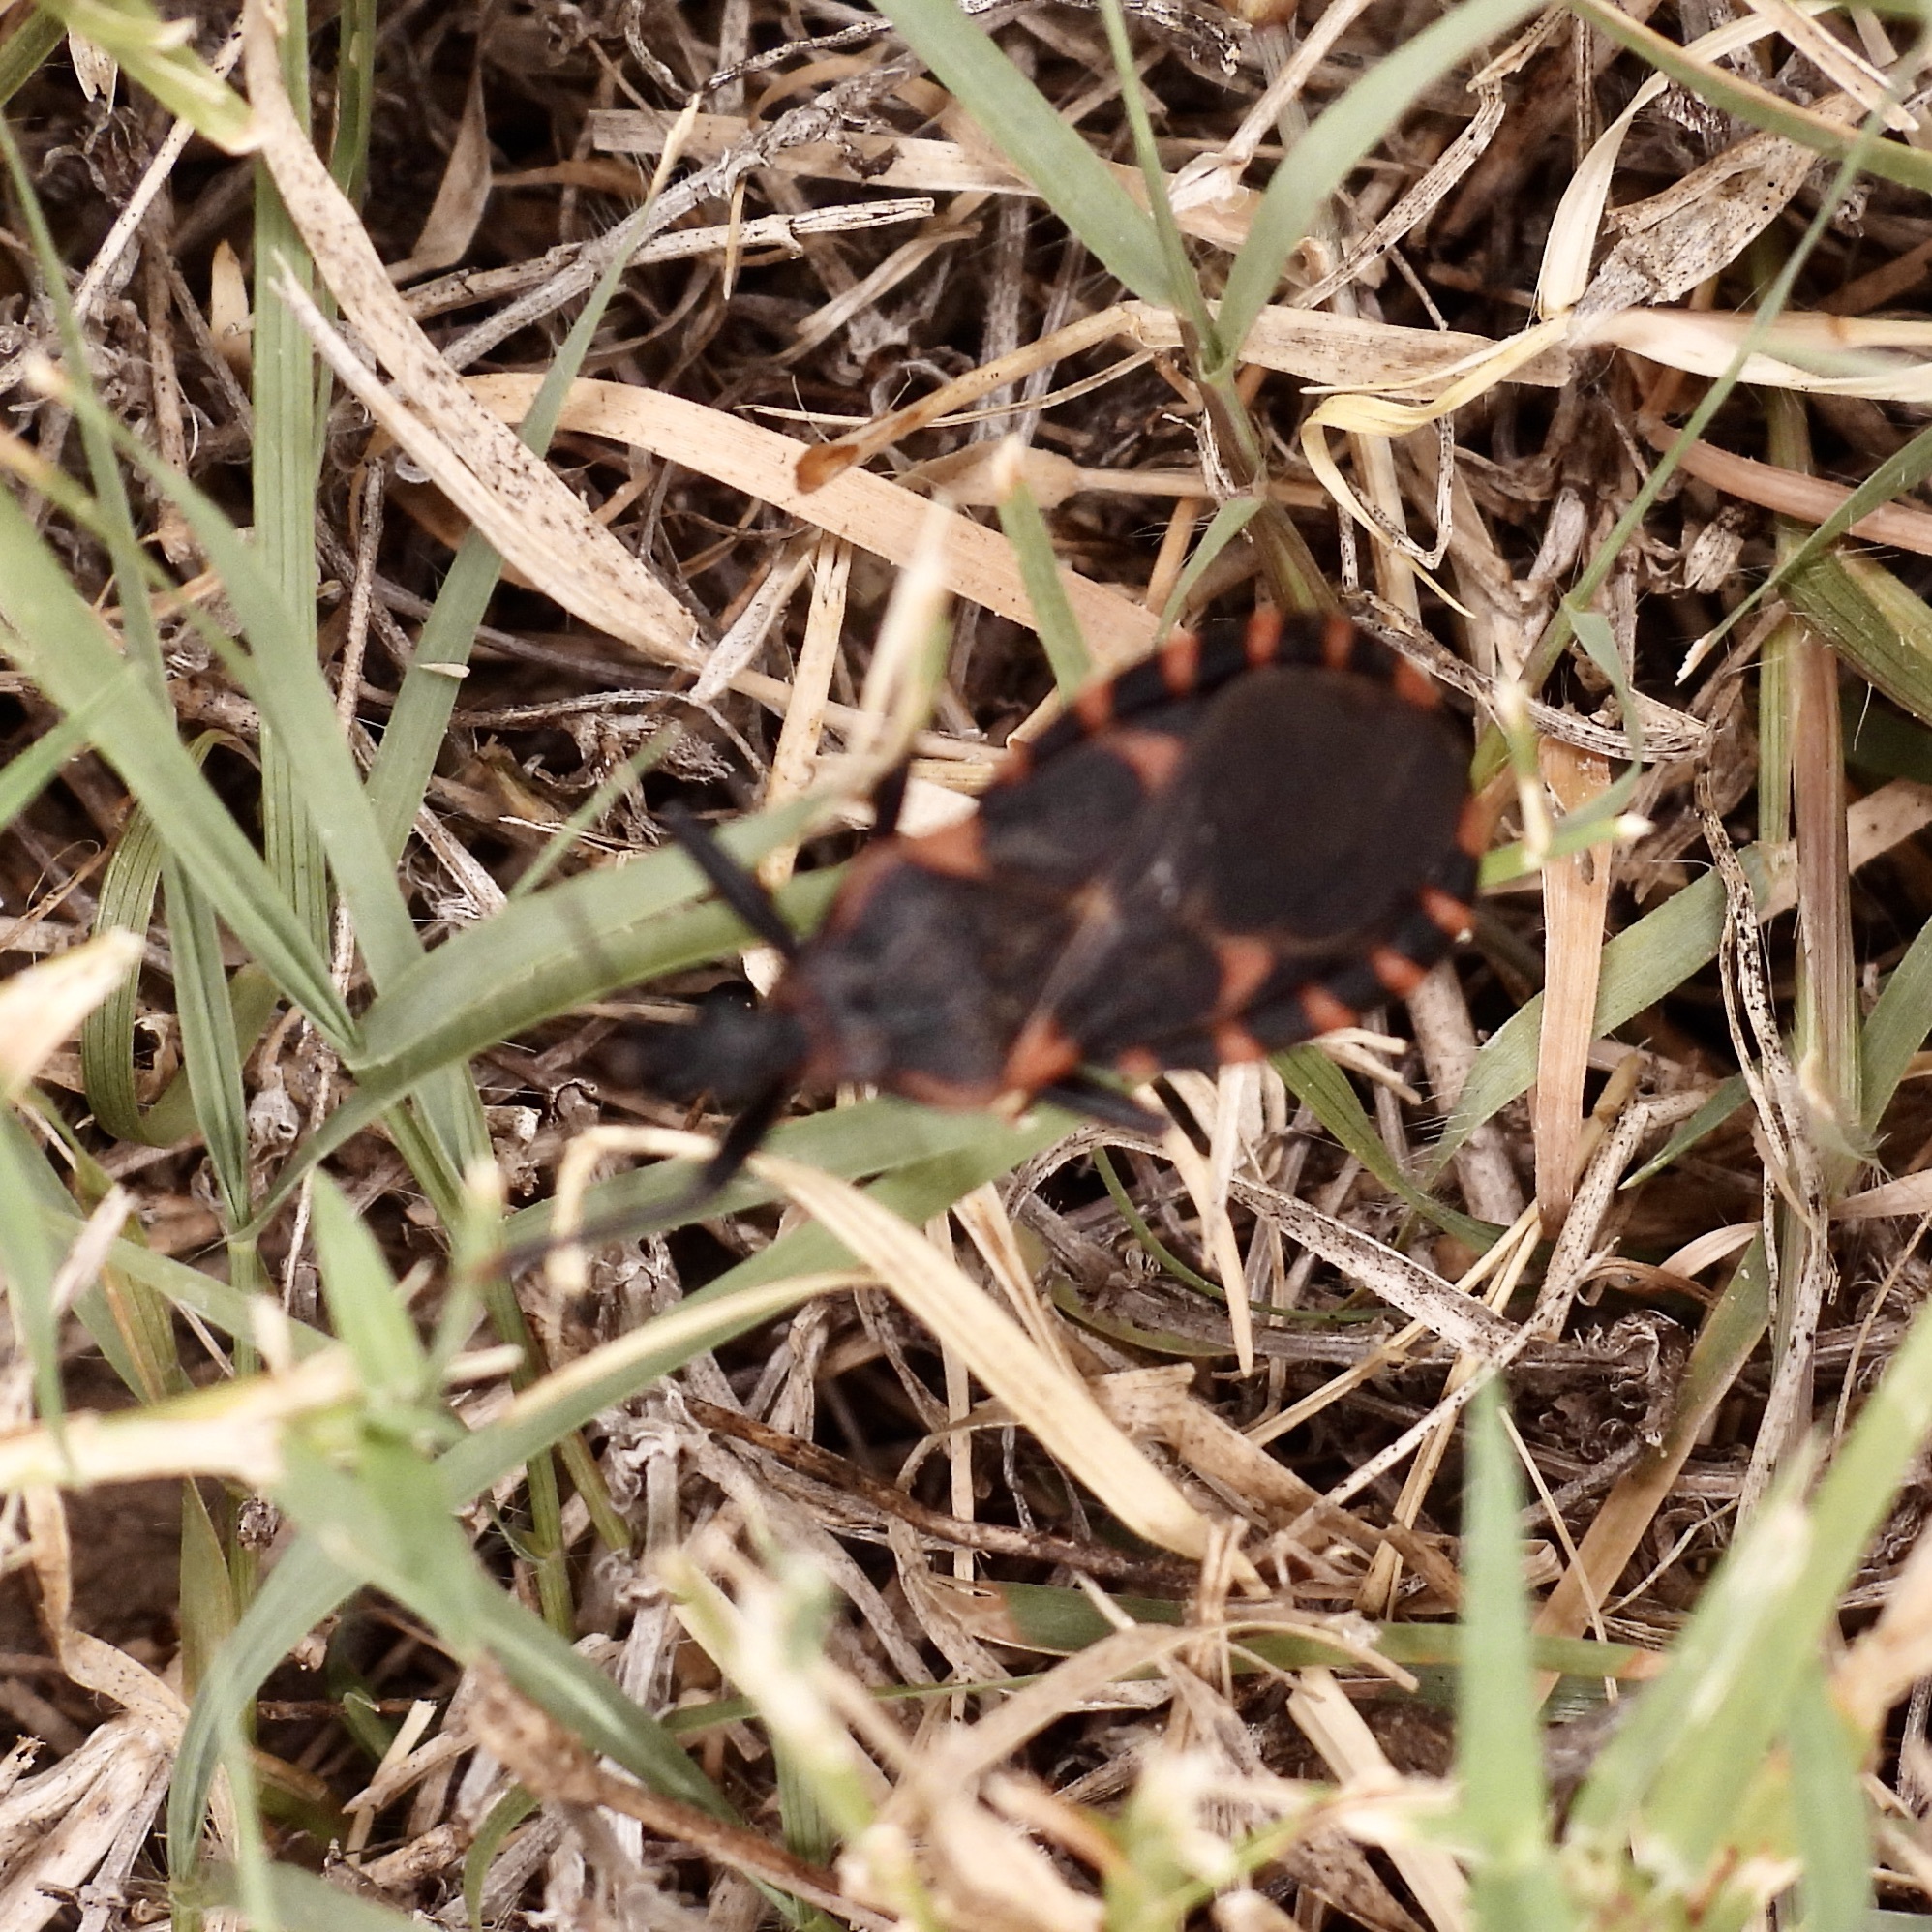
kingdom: Animalia
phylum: Arthropoda
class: Insecta
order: Hemiptera
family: Reduviidae
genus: Triatoma
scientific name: Triatoma sanguisuga
